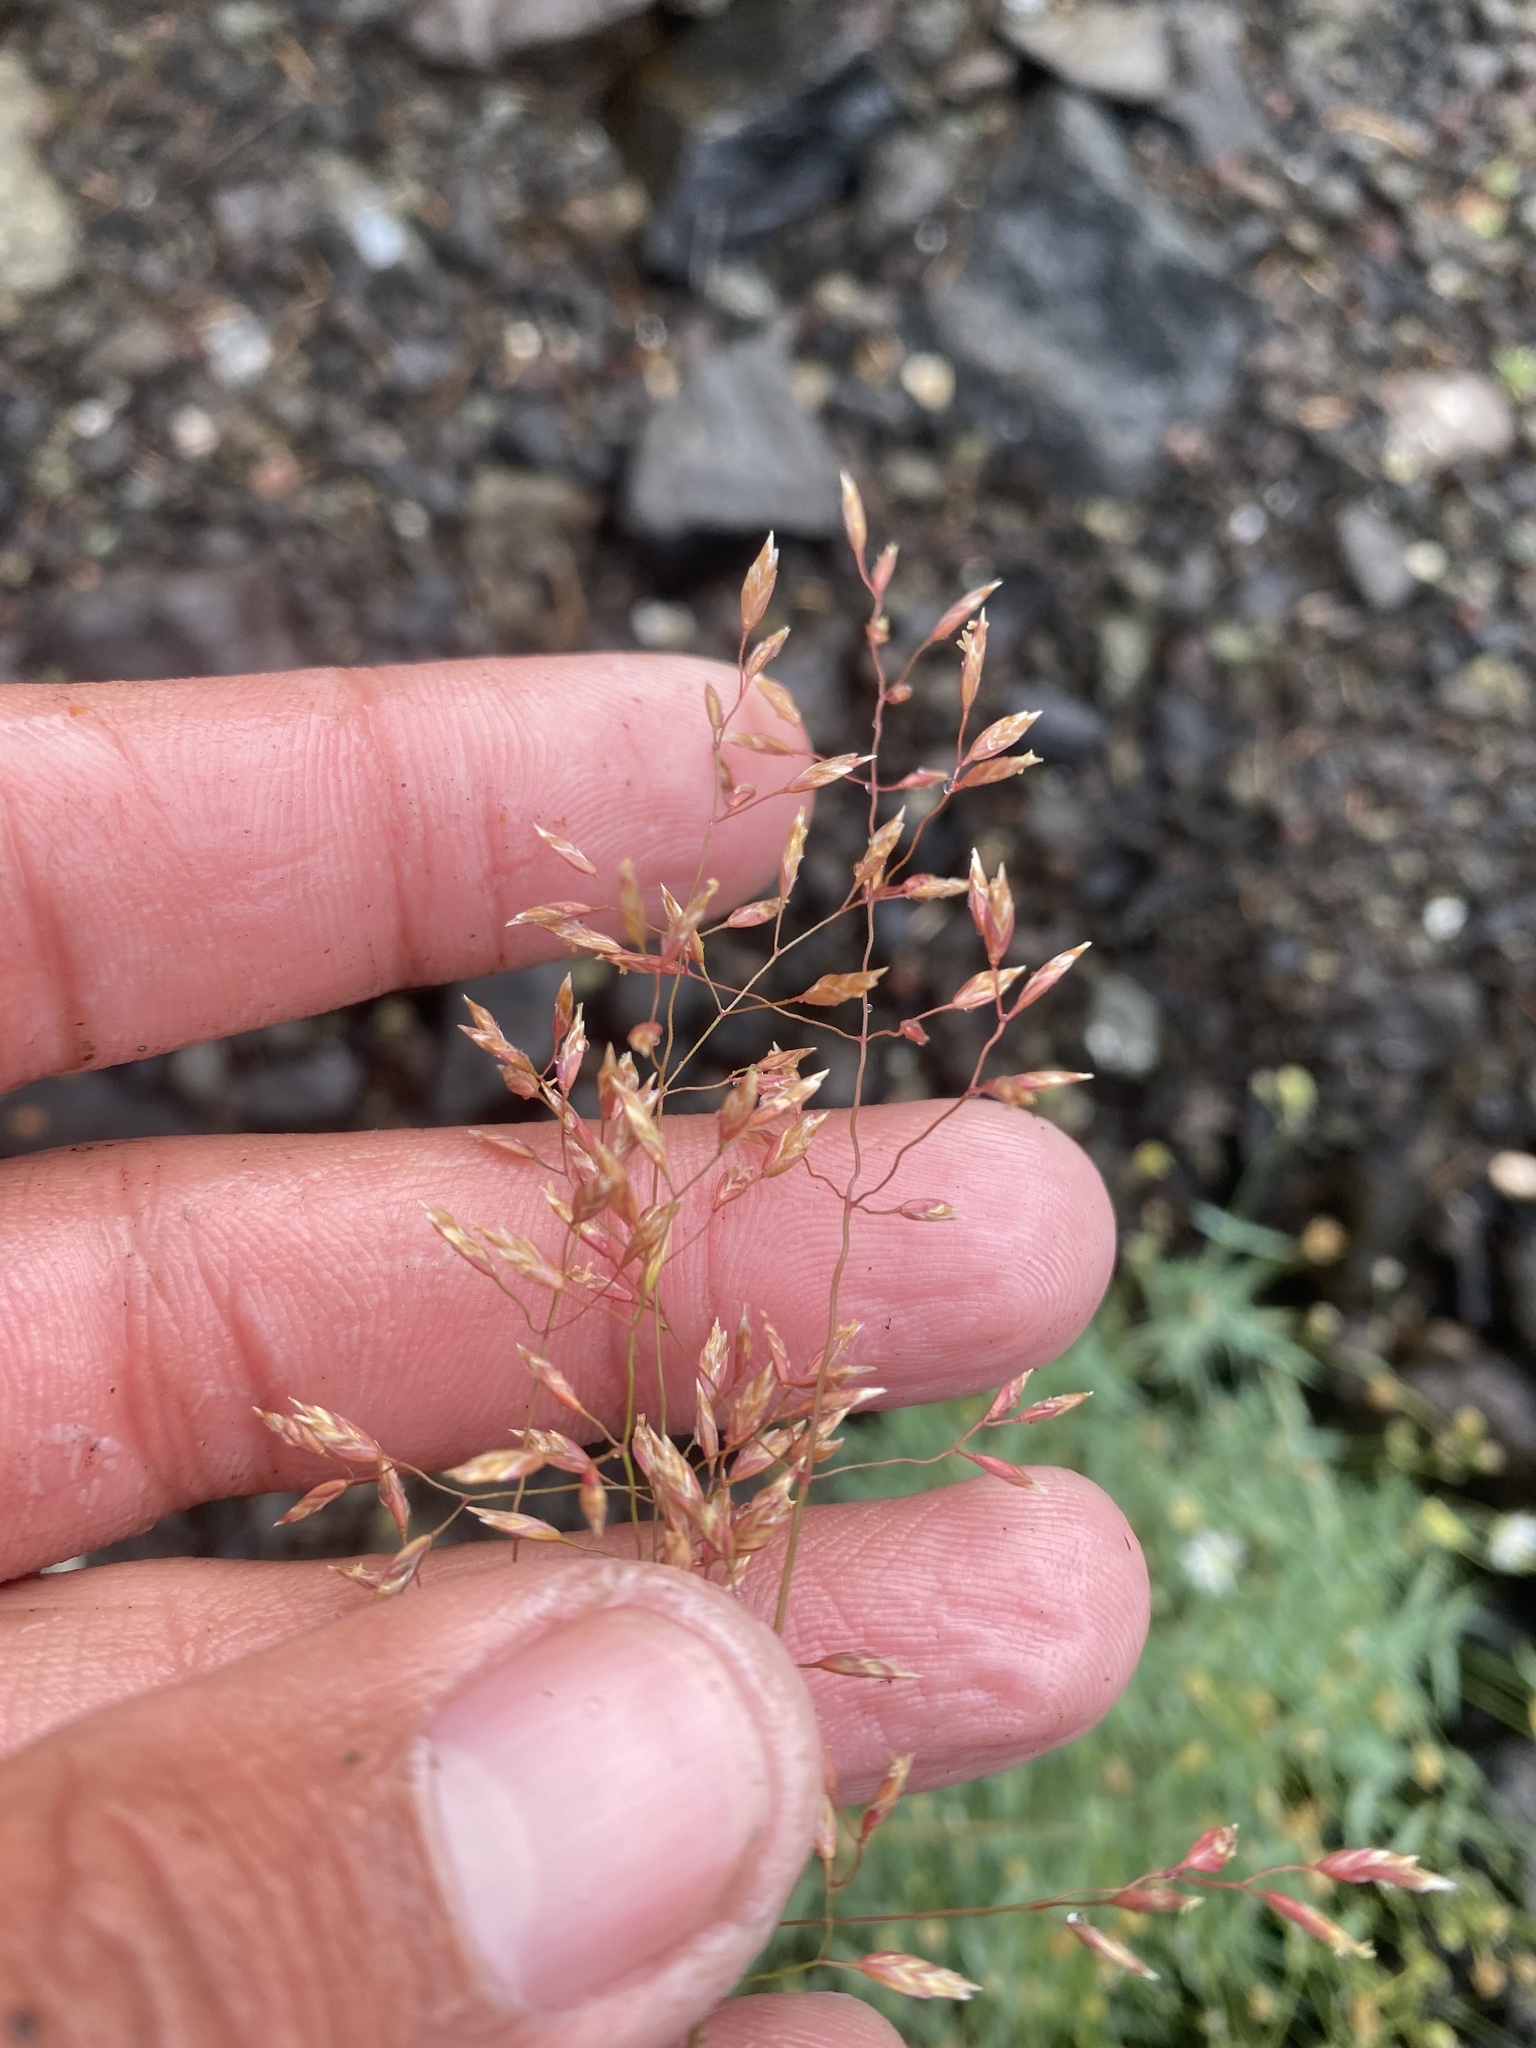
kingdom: Plantae
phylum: Tracheophyta
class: Liliopsida
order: Poales
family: Poaceae
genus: Poa
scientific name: Poa alpigena
